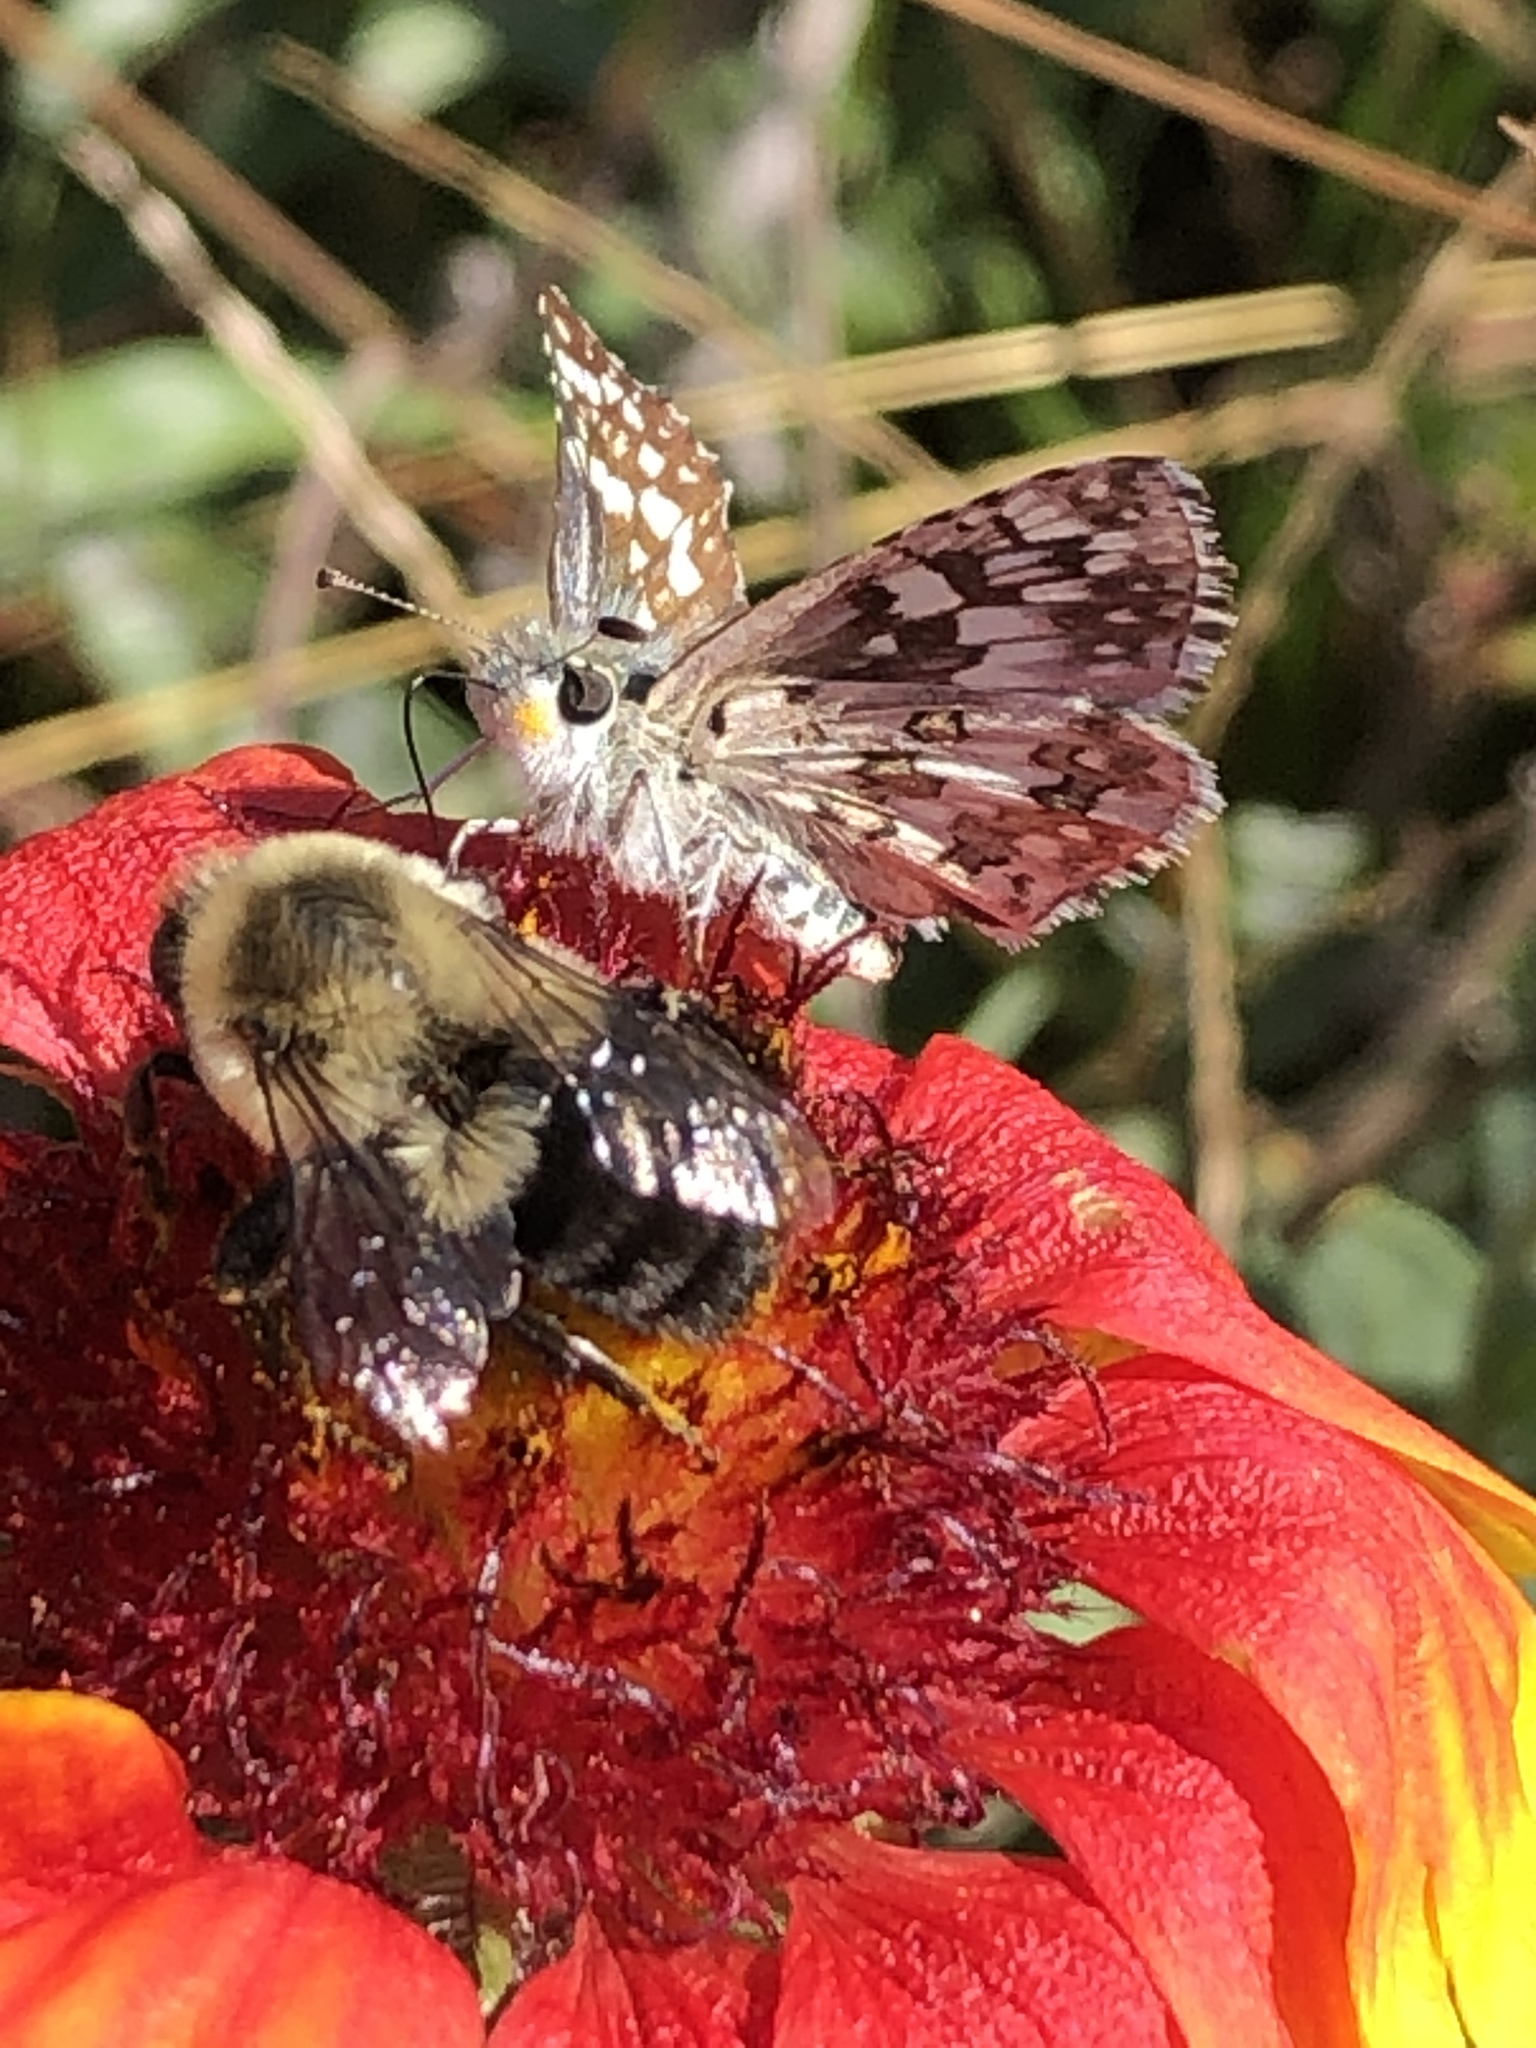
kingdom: Animalia
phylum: Arthropoda
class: Insecta
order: Hymenoptera
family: Apidae
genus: Bombus
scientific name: Bombus impatiens
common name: Common eastern bumble bee
